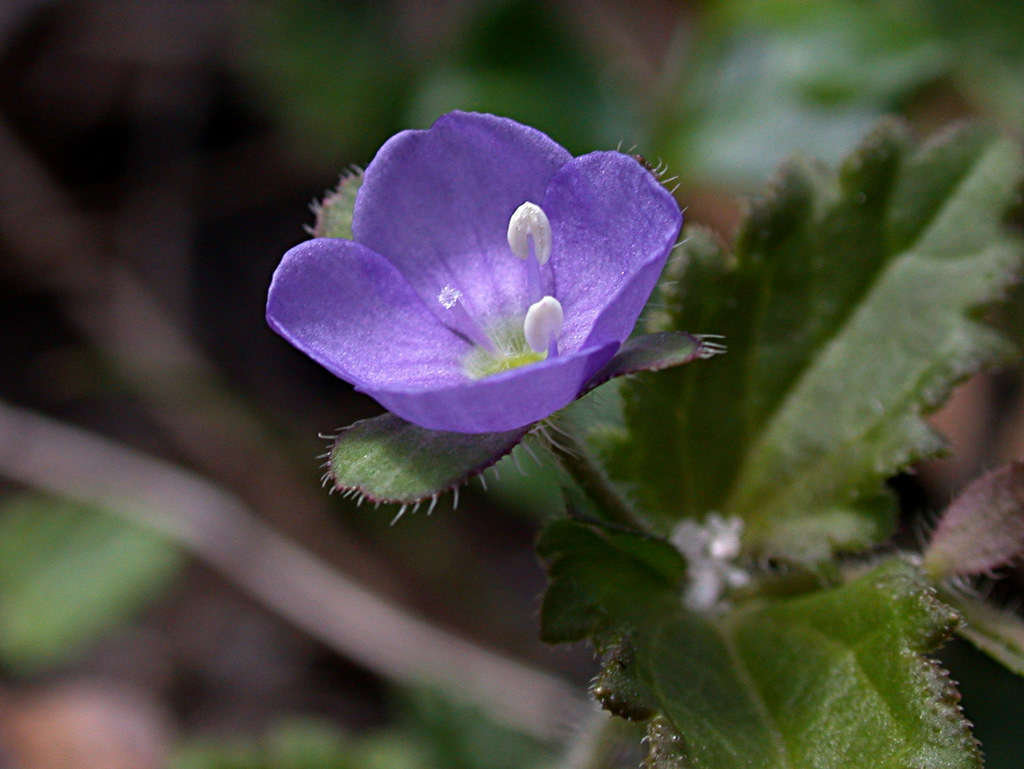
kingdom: Plantae
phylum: Tracheophyta
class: Magnoliopsida
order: Lamiales
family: Plantaginaceae
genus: Veronica
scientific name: Veronica calycina
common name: Cup speedwell
